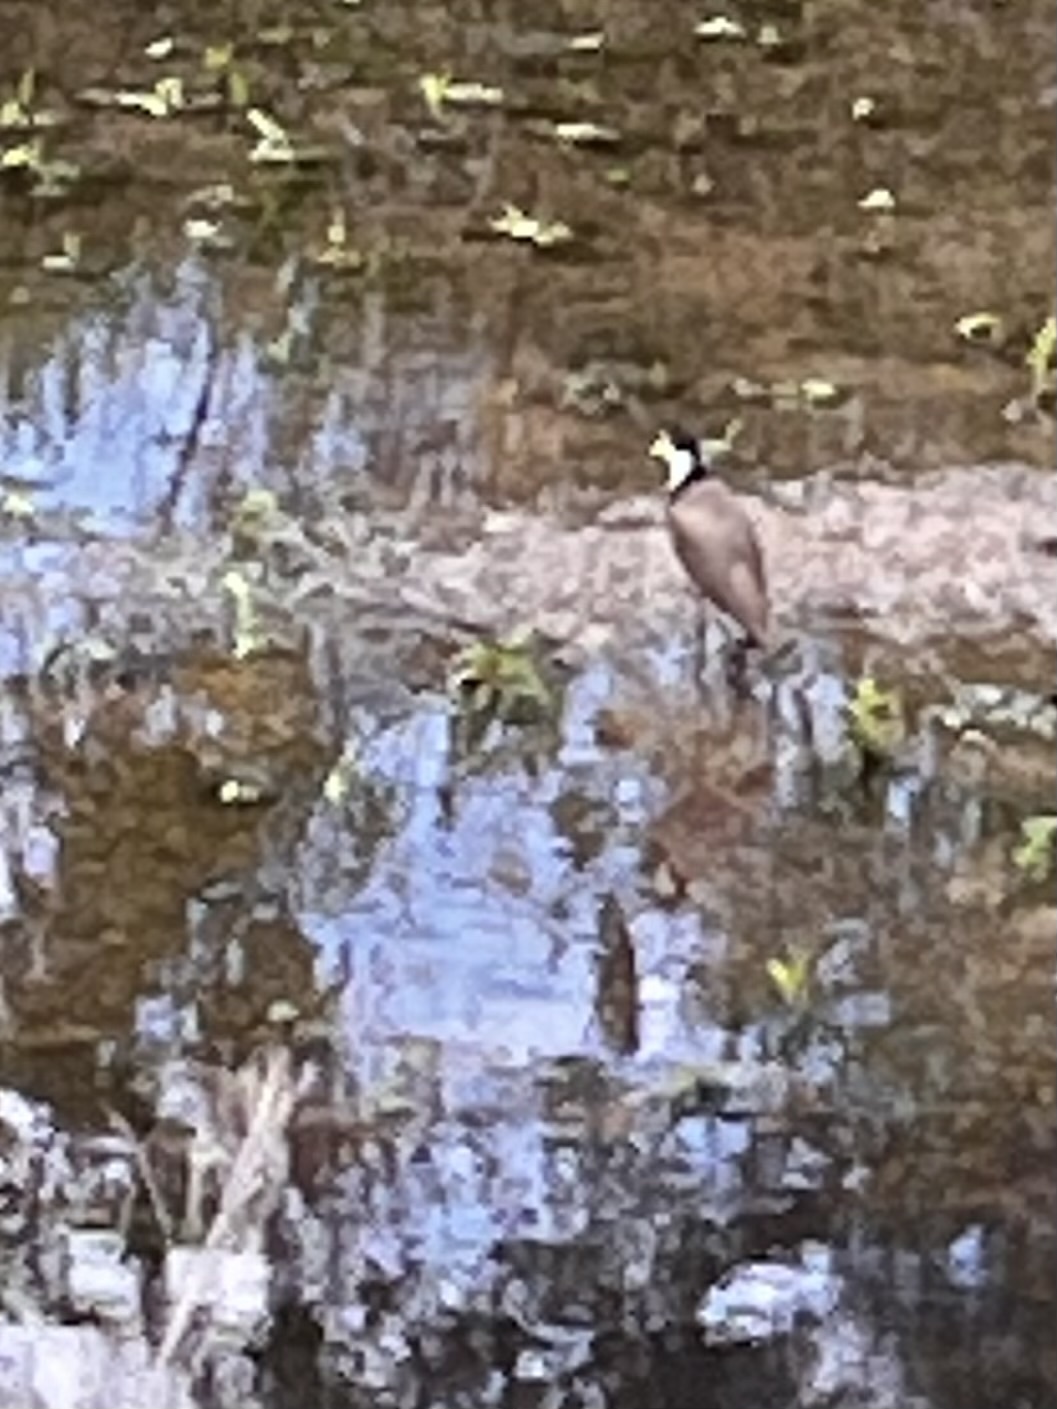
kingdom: Animalia
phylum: Chordata
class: Aves
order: Charadriiformes
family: Charadriidae
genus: Vanellus
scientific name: Vanellus miles
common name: Masked lapwing
